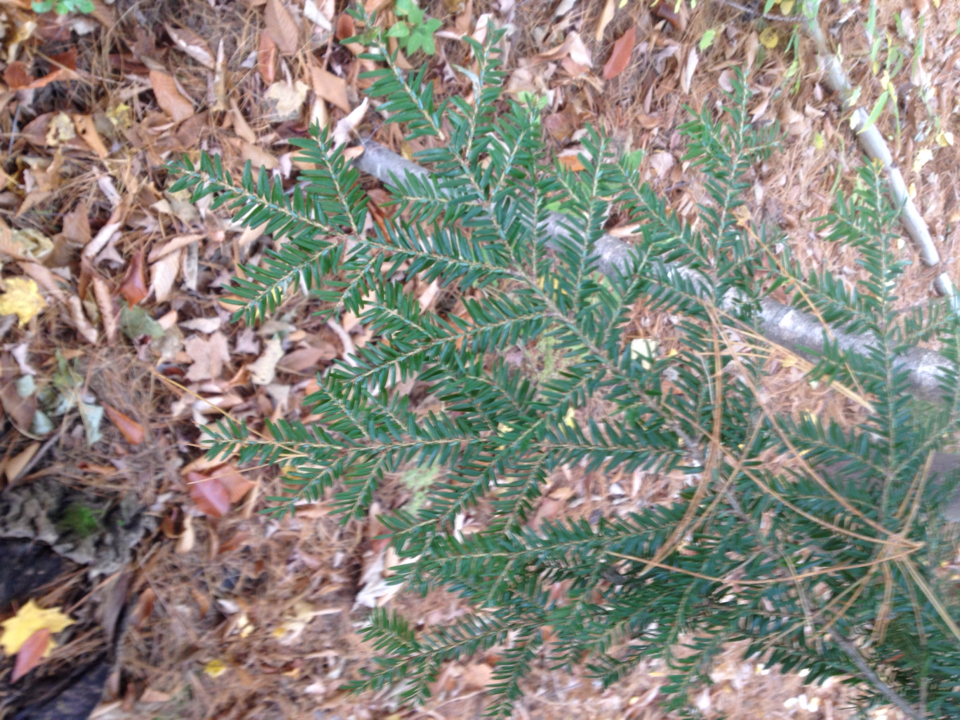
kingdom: Plantae
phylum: Tracheophyta
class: Pinopsida
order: Pinales
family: Pinaceae
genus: Tsuga
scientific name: Tsuga canadensis
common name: Eastern hemlock
